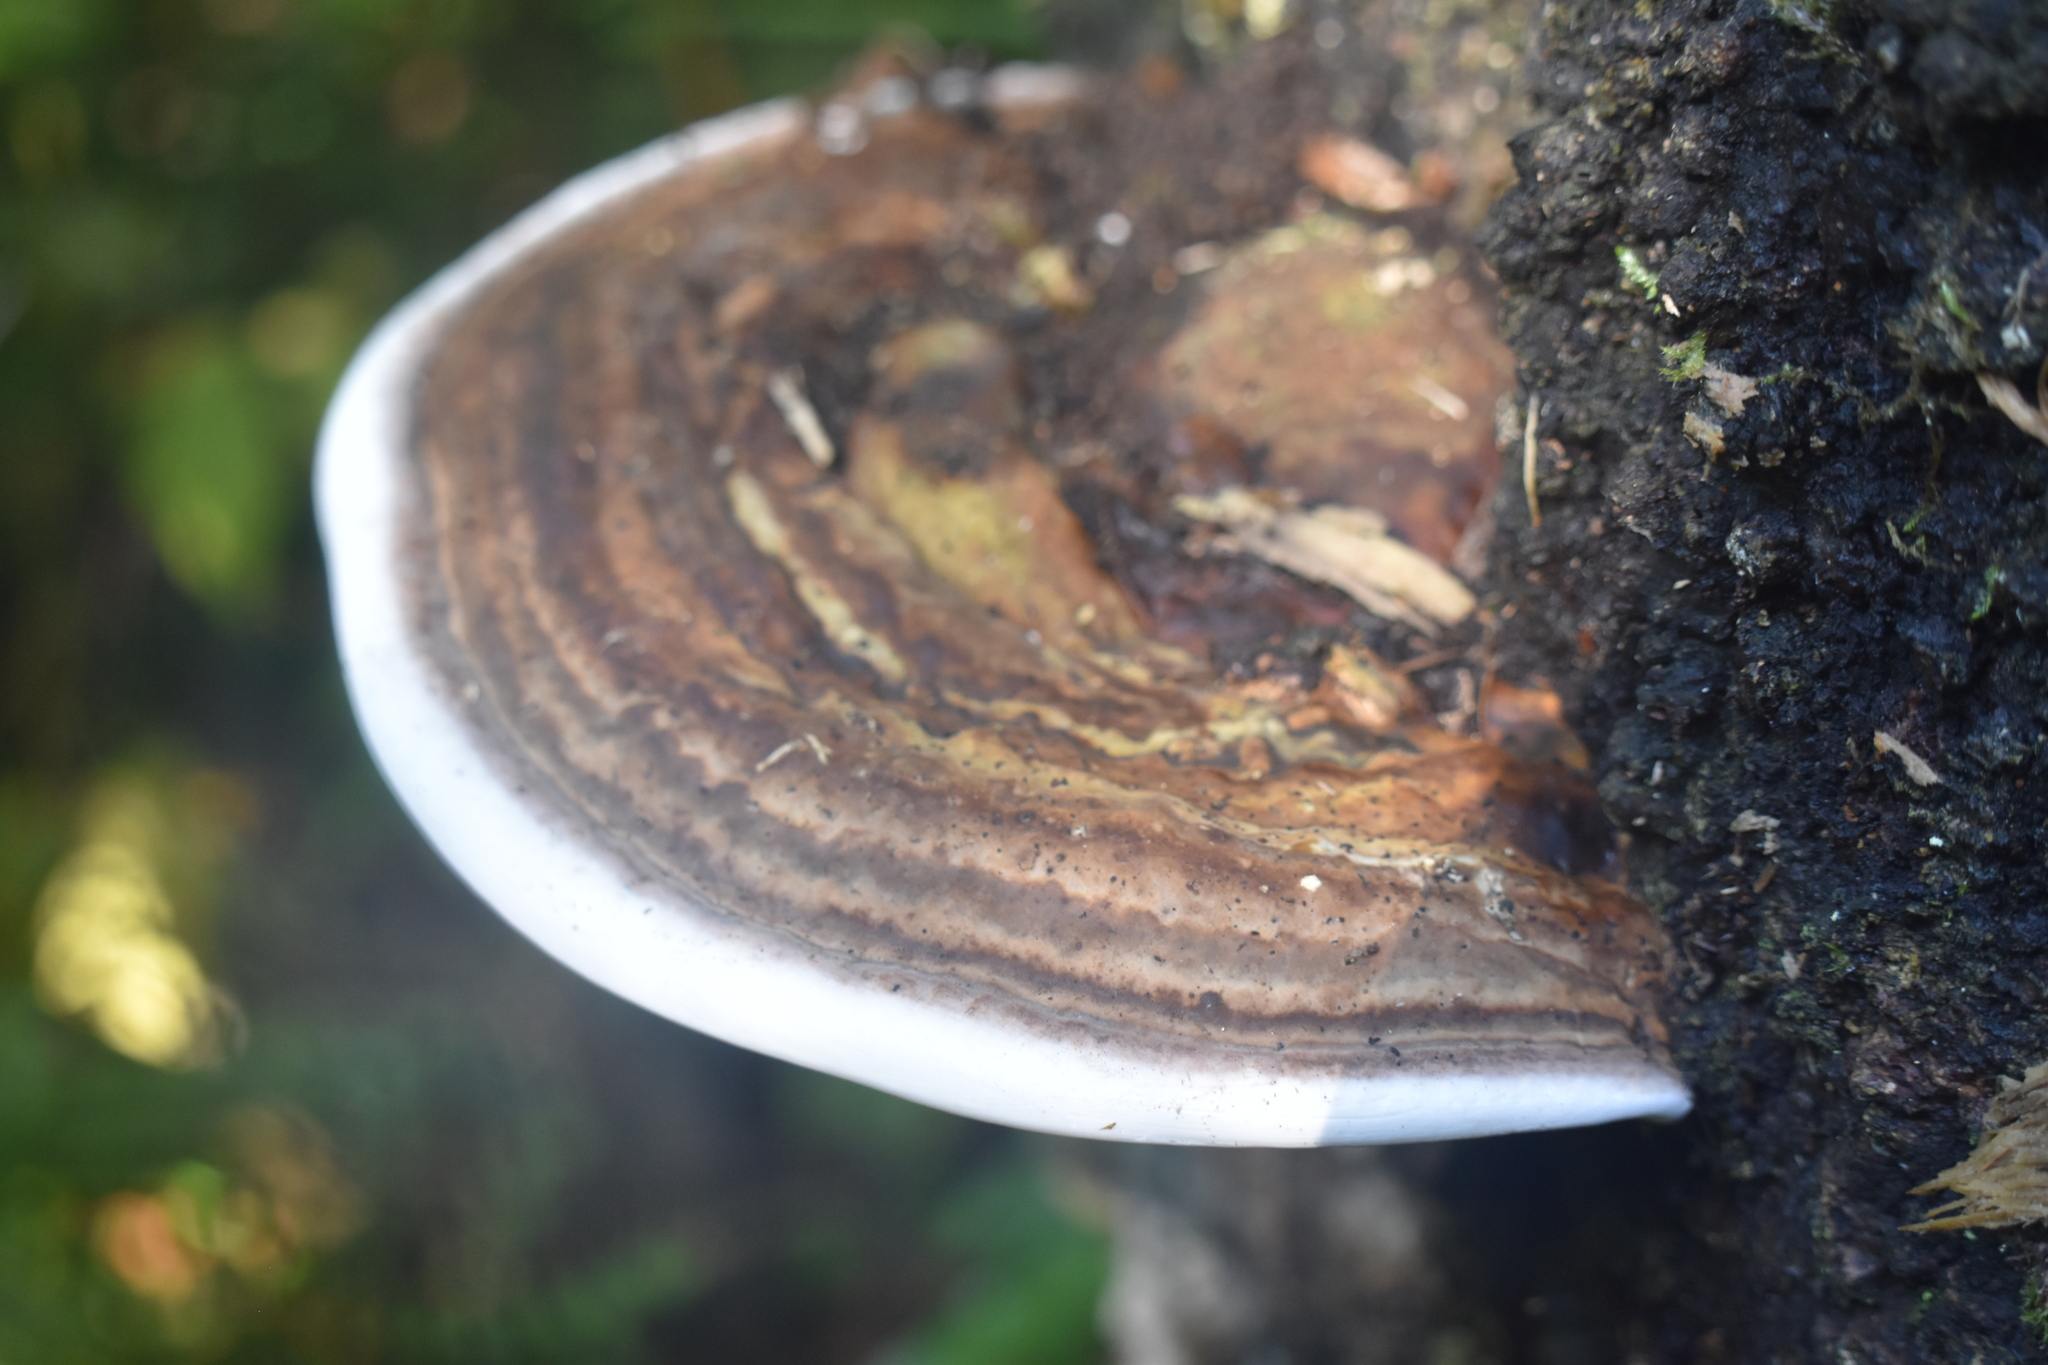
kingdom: Fungi
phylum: Basidiomycota
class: Agaricomycetes
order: Polyporales
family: Fomitopsidaceae
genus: Pilatoporus
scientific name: Pilatoporus hemitephrus
